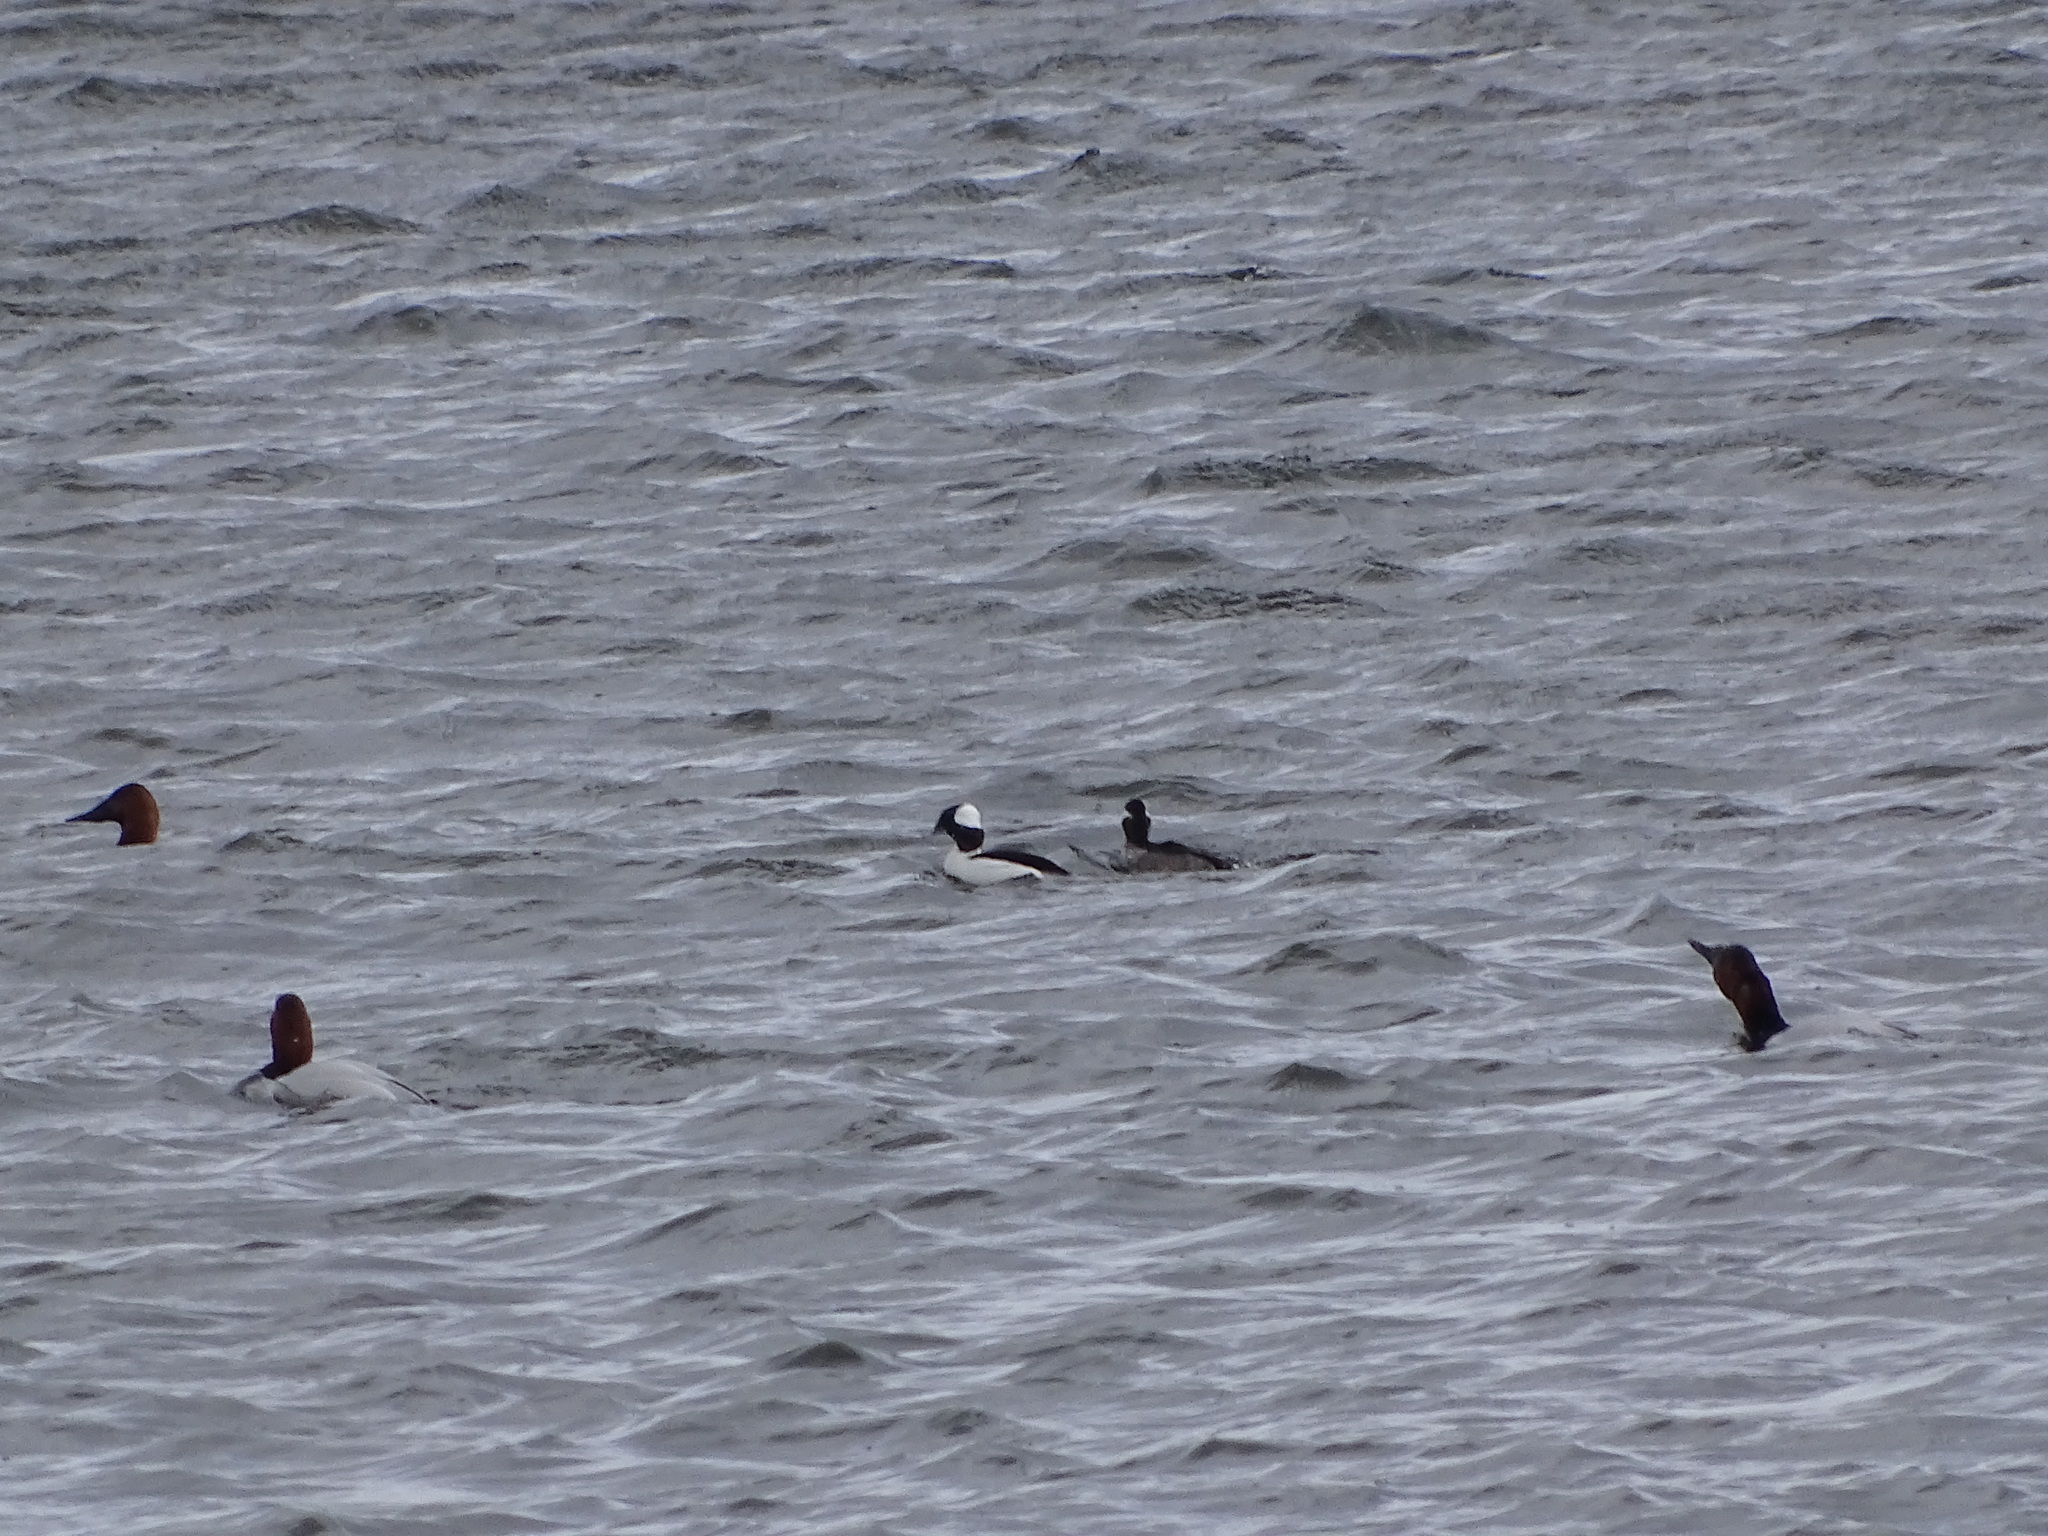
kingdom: Animalia
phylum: Chordata
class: Aves
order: Anseriformes
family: Anatidae
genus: Bucephala
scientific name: Bucephala albeola
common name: Bufflehead
